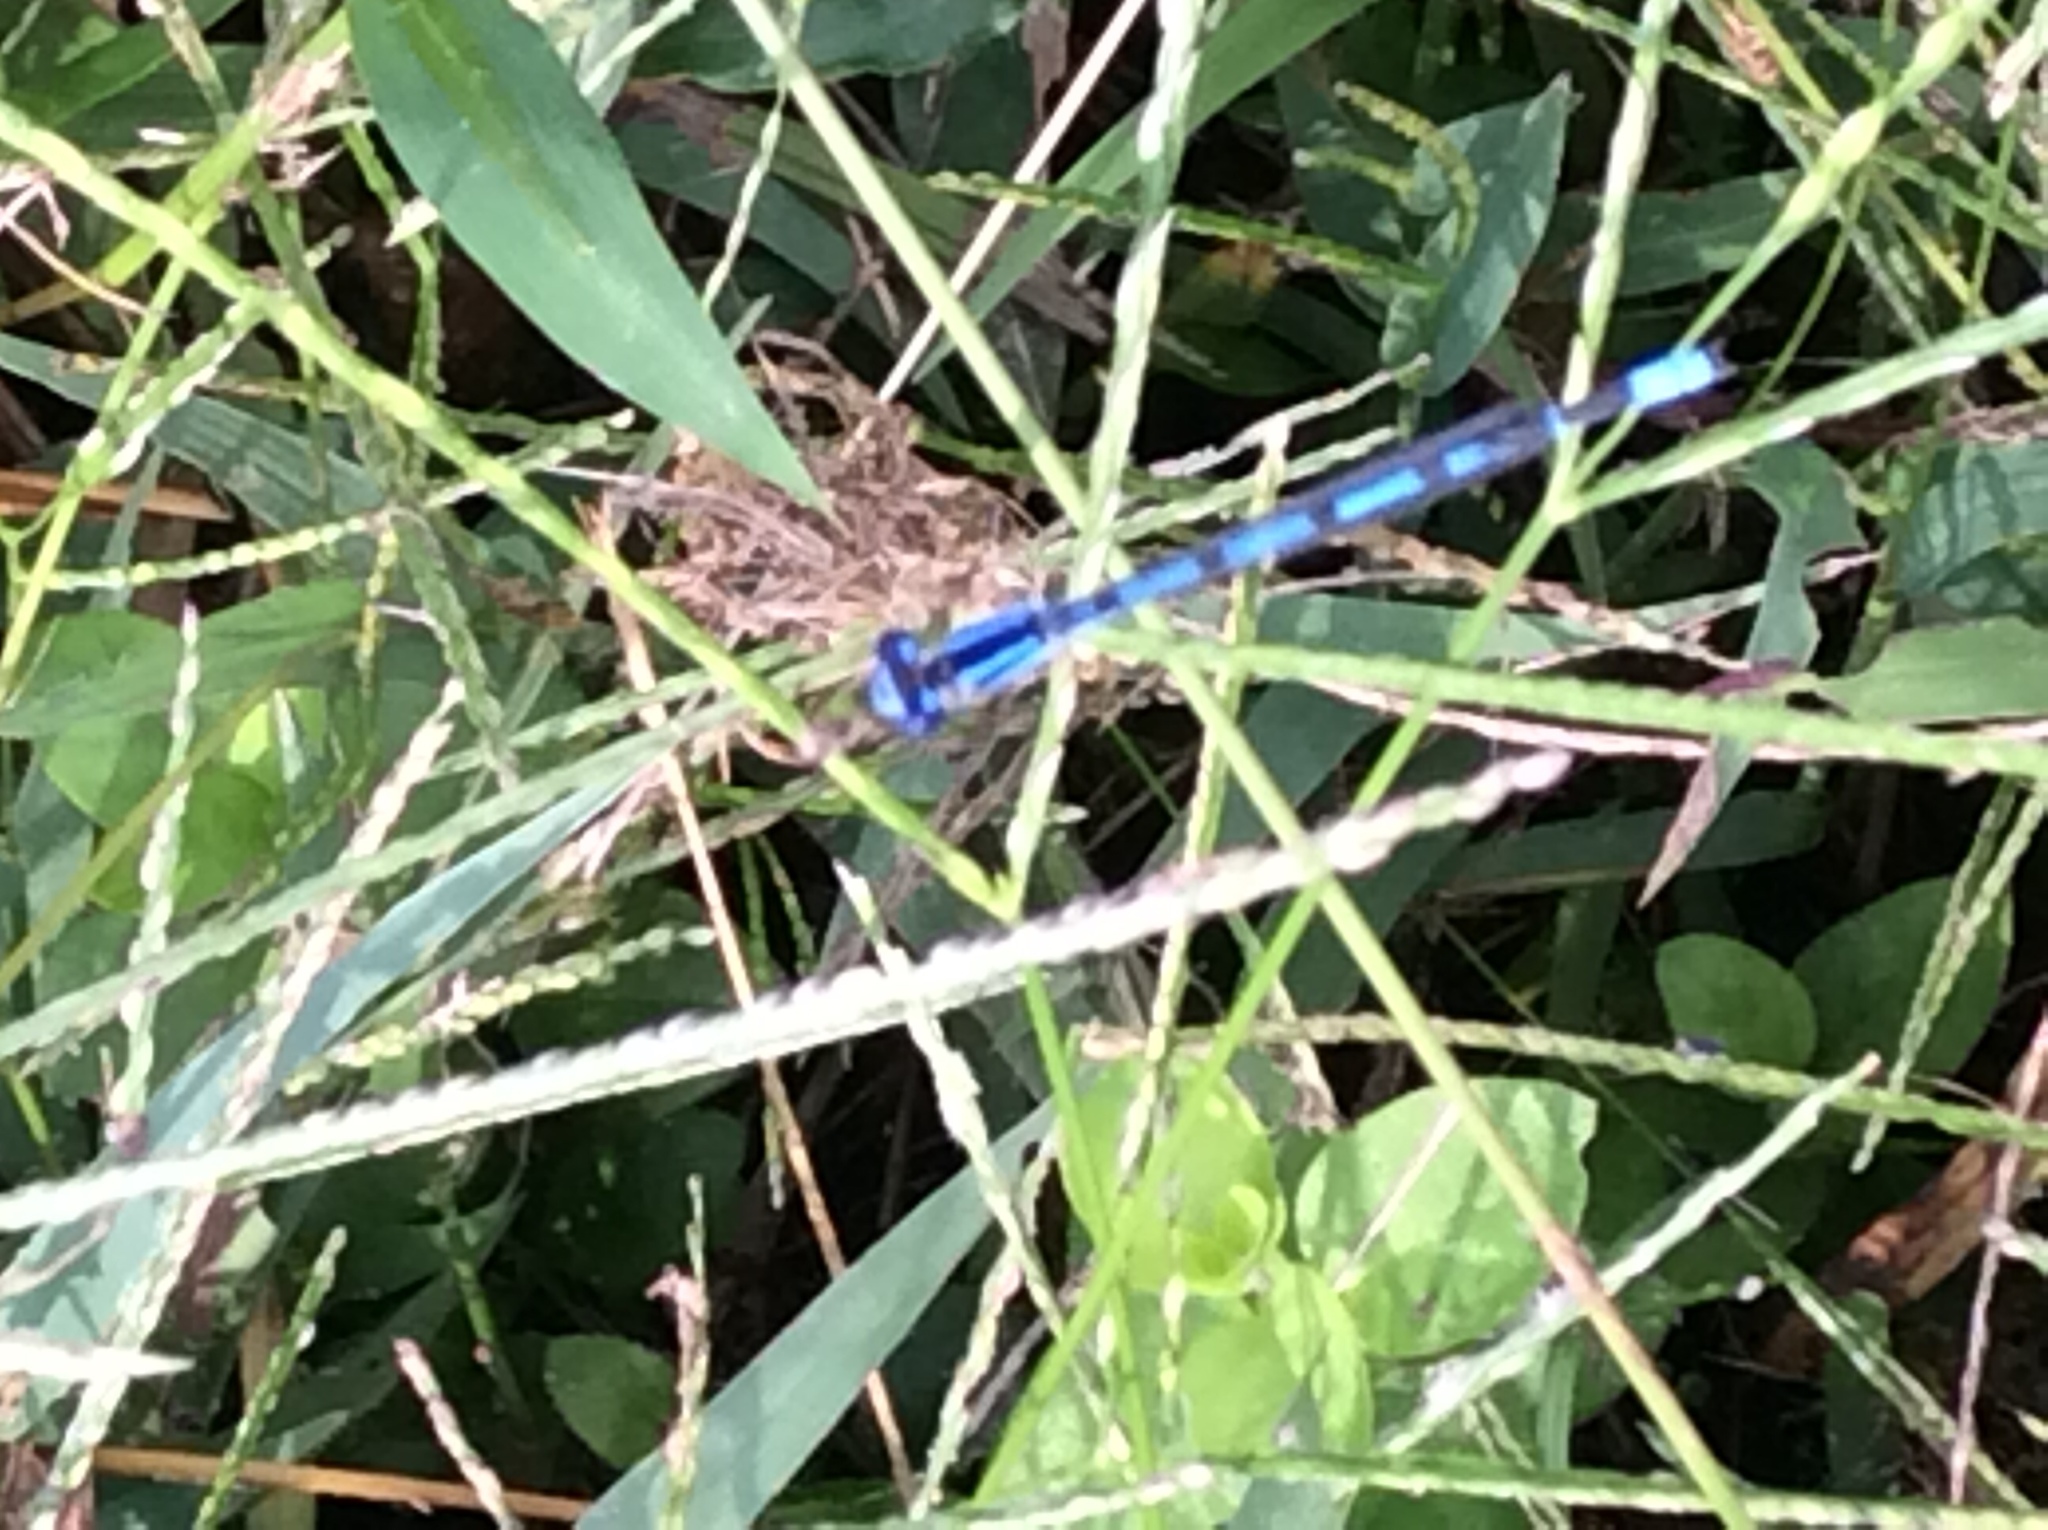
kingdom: Animalia
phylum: Arthropoda
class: Insecta
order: Odonata
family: Coenagrionidae
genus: Enallagma
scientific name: Enallagma civile
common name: Damselfly
